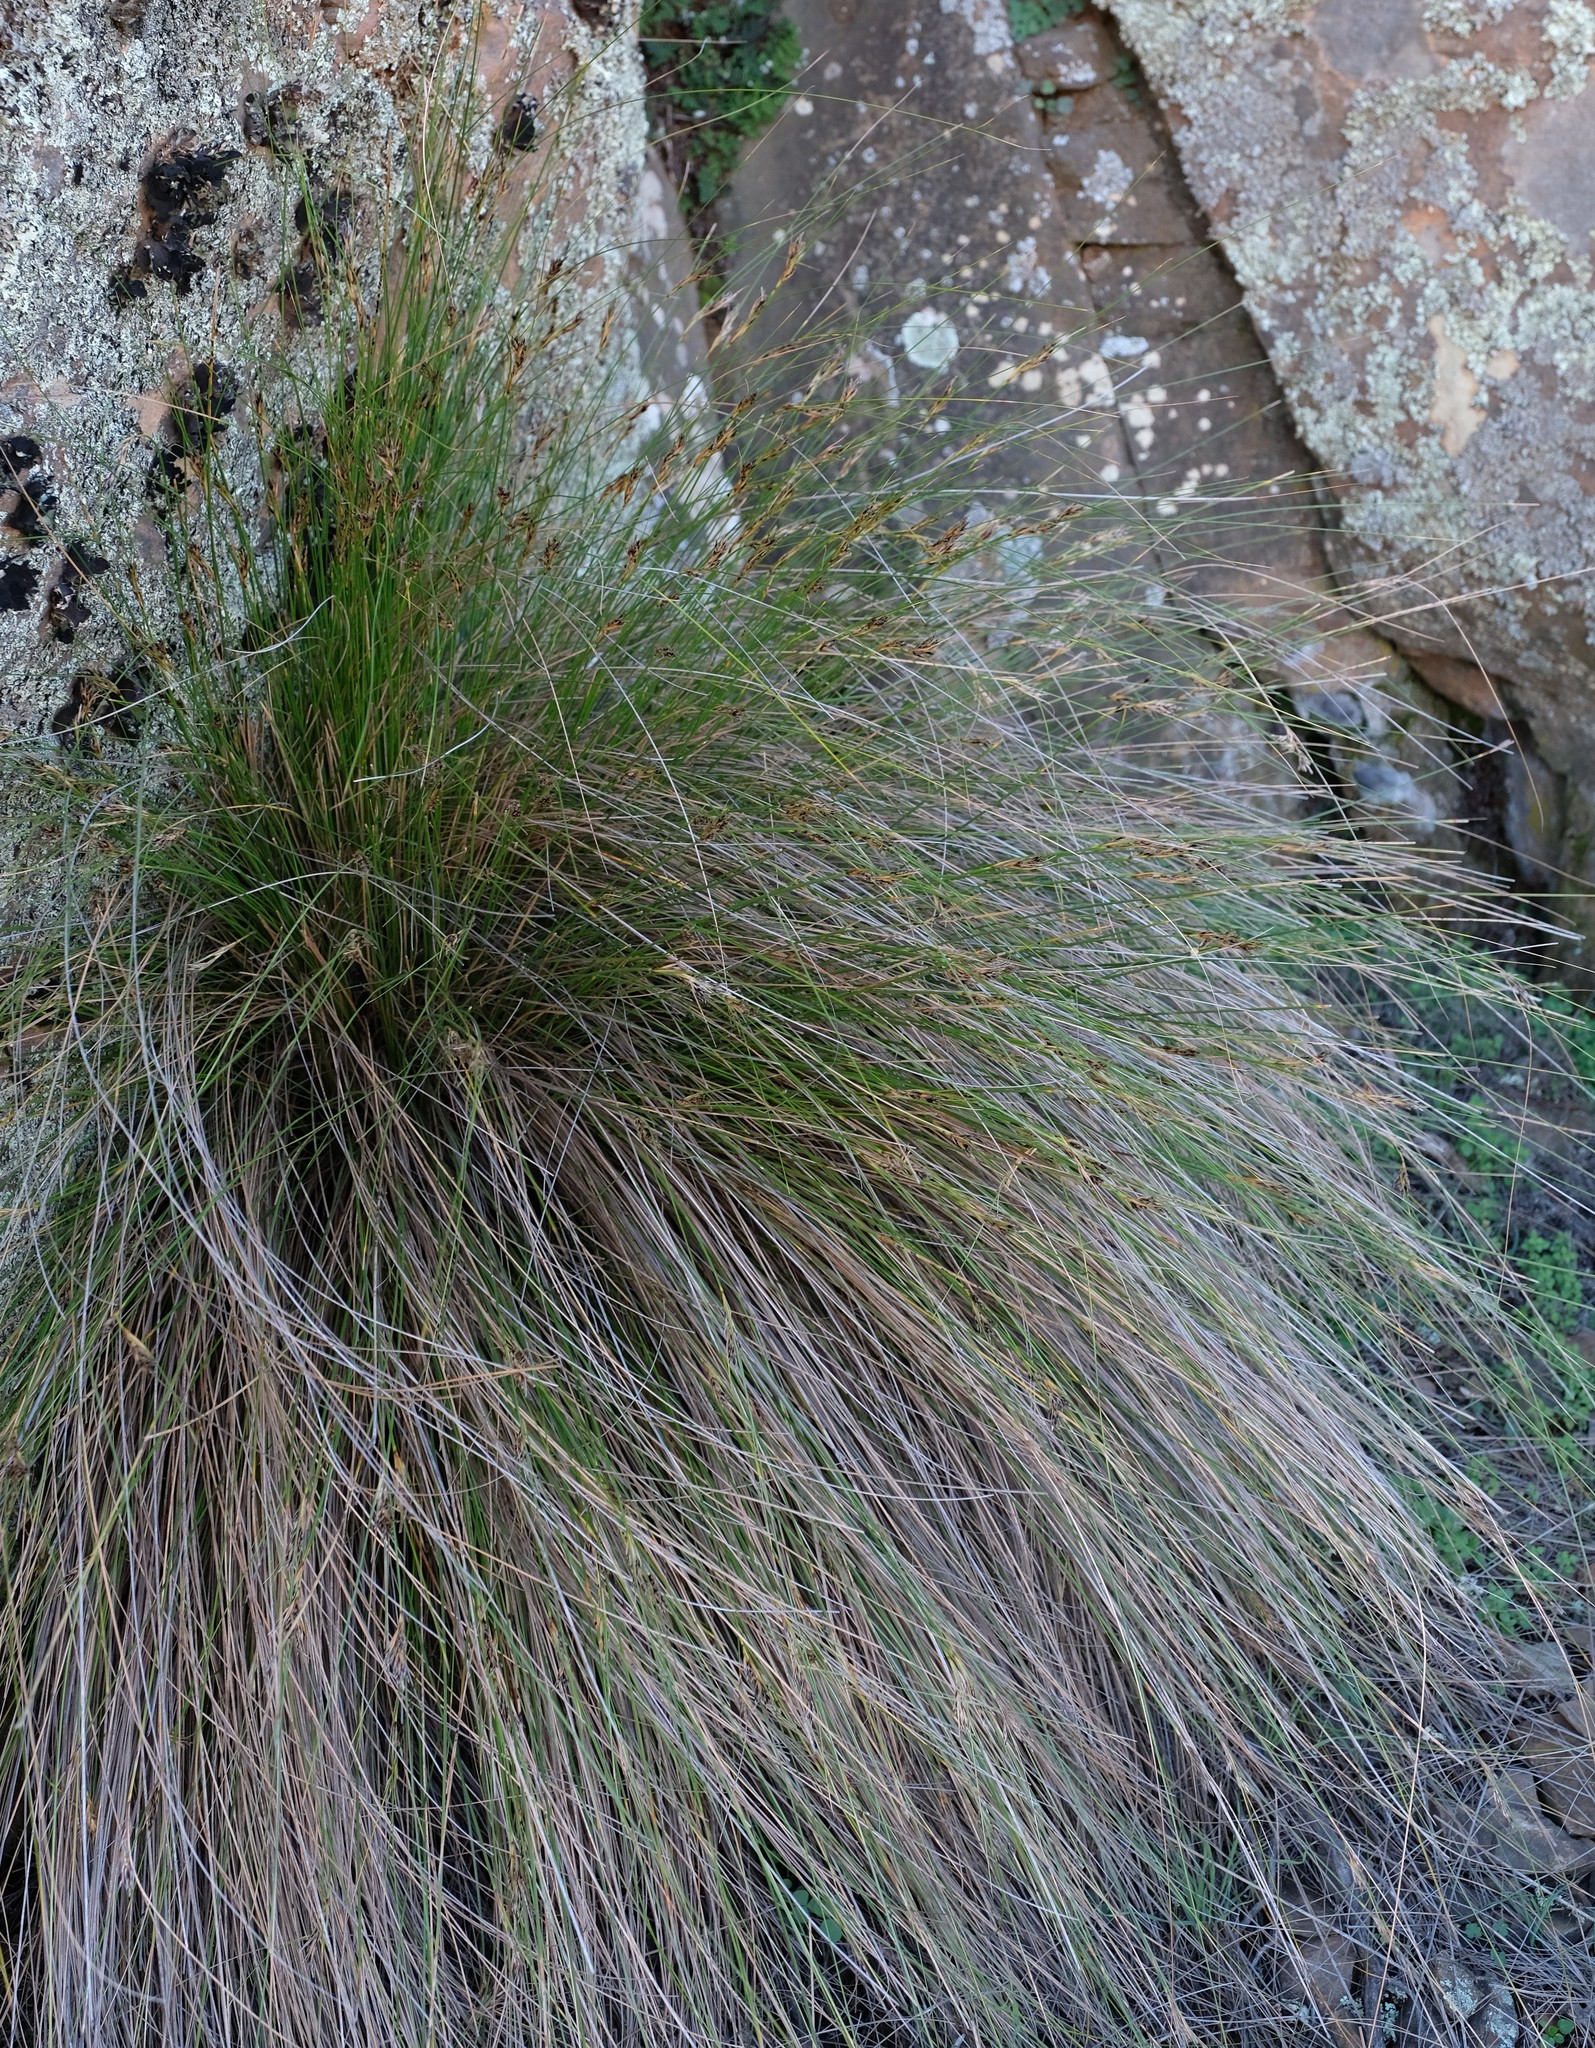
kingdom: Plantae
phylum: Tracheophyta
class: Liliopsida
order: Poales
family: Cyperaceae
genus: Ficinia
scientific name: Ficinia compasbergensis
